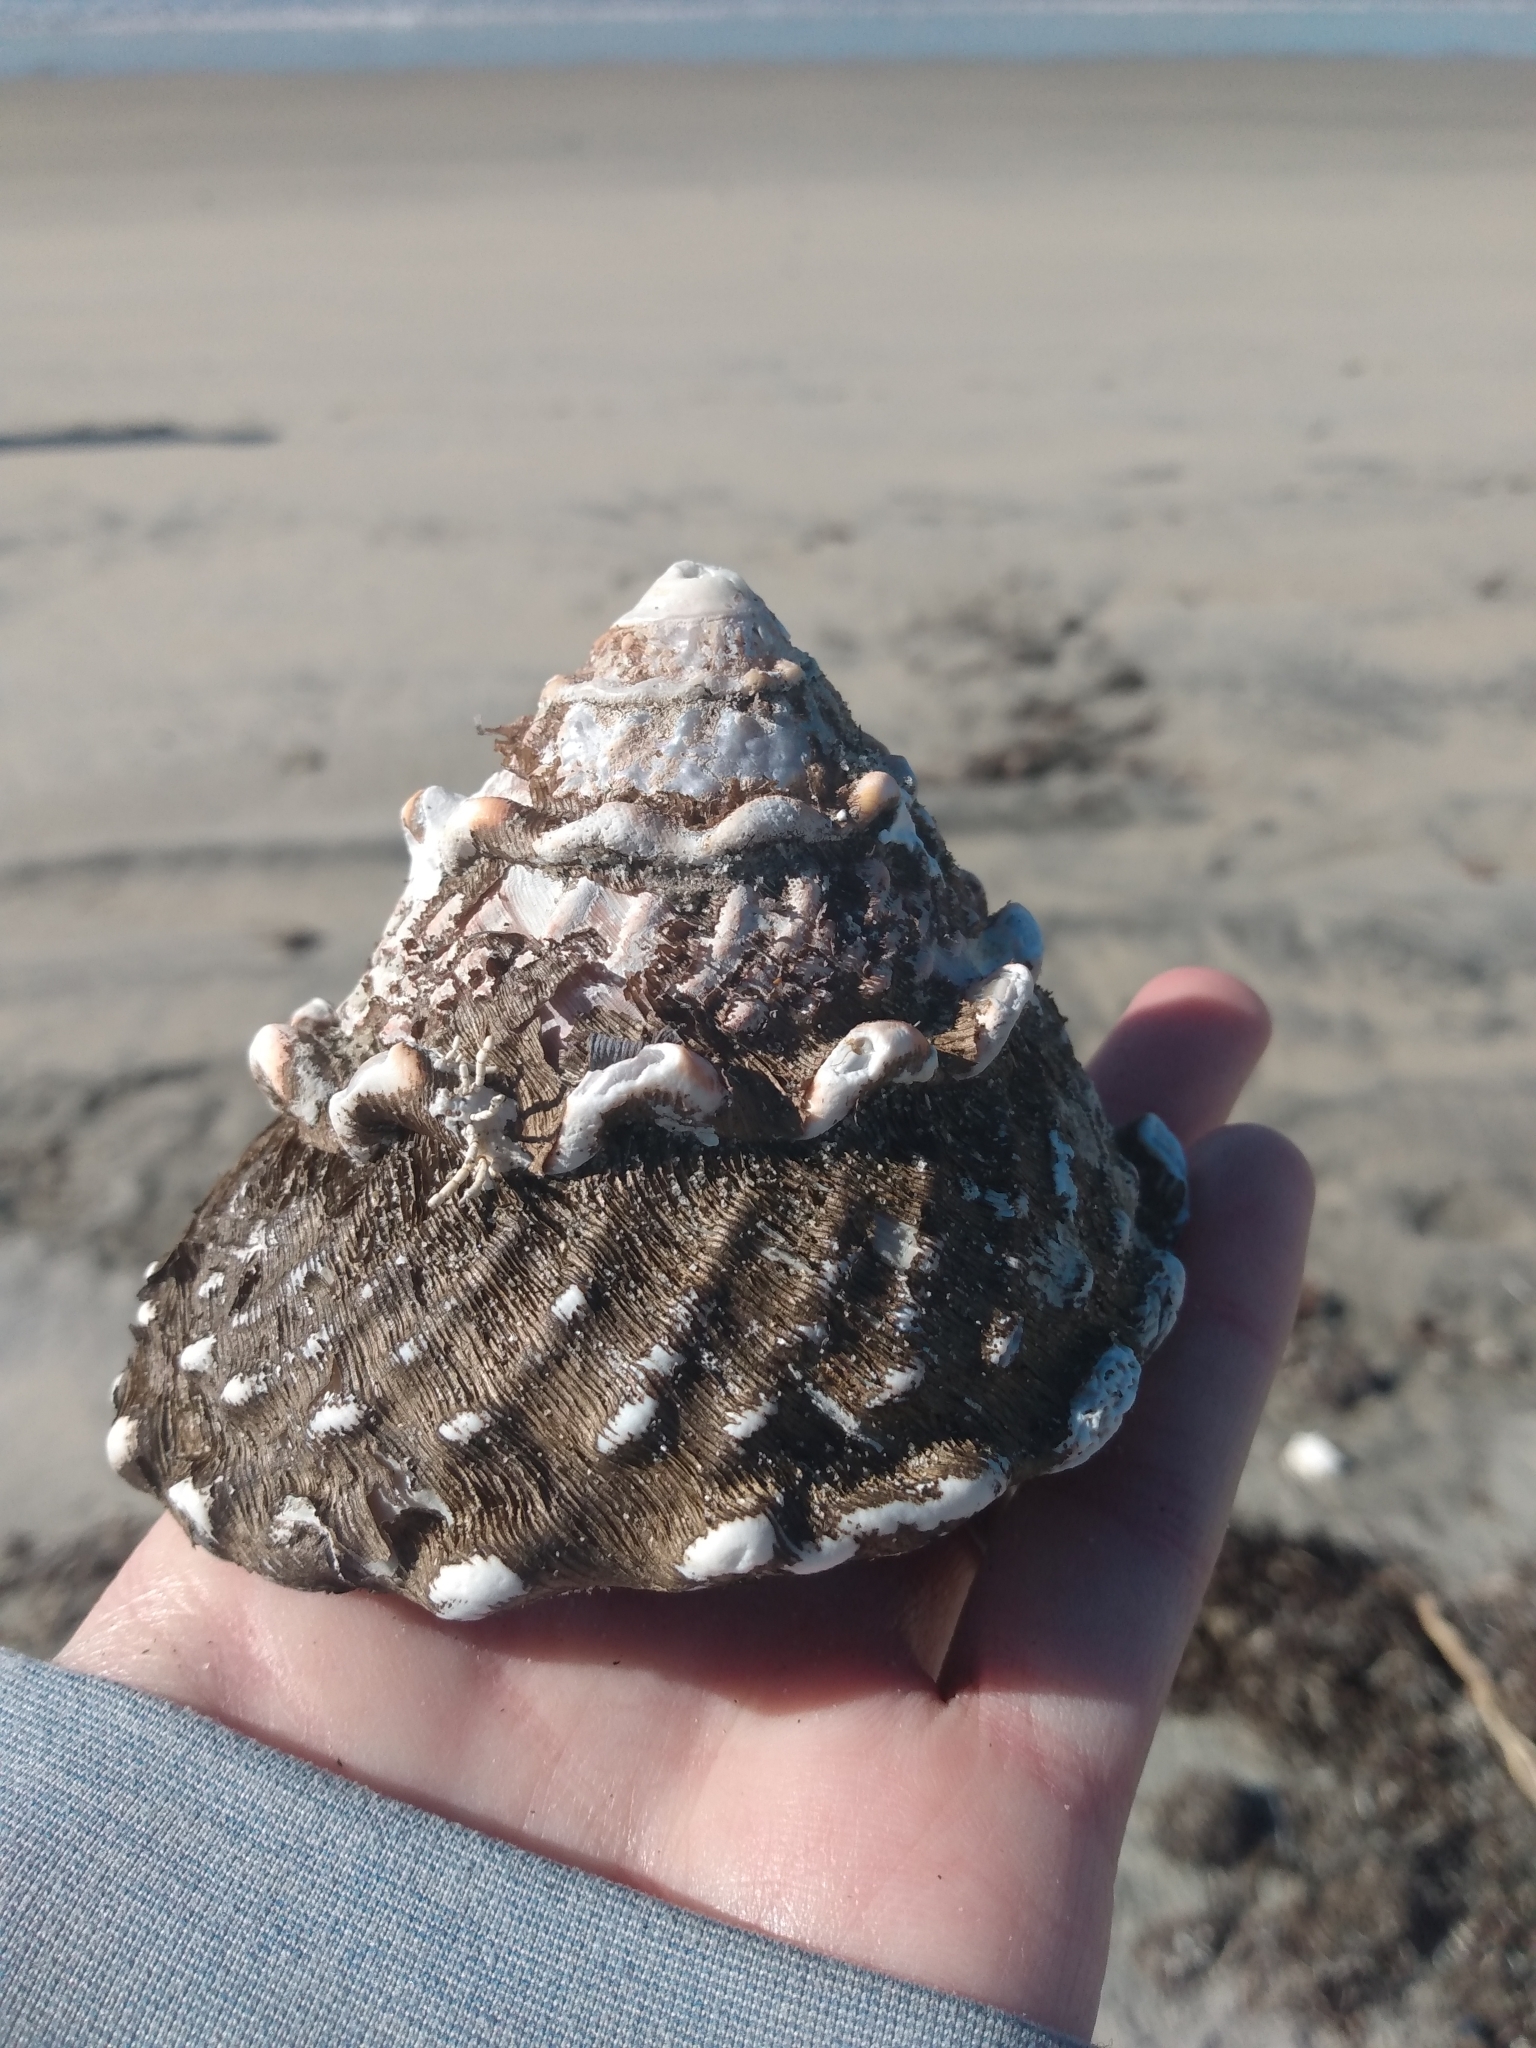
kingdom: Animalia
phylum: Mollusca
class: Gastropoda
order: Trochida
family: Turbinidae
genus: Megastraea
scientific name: Megastraea undosa
